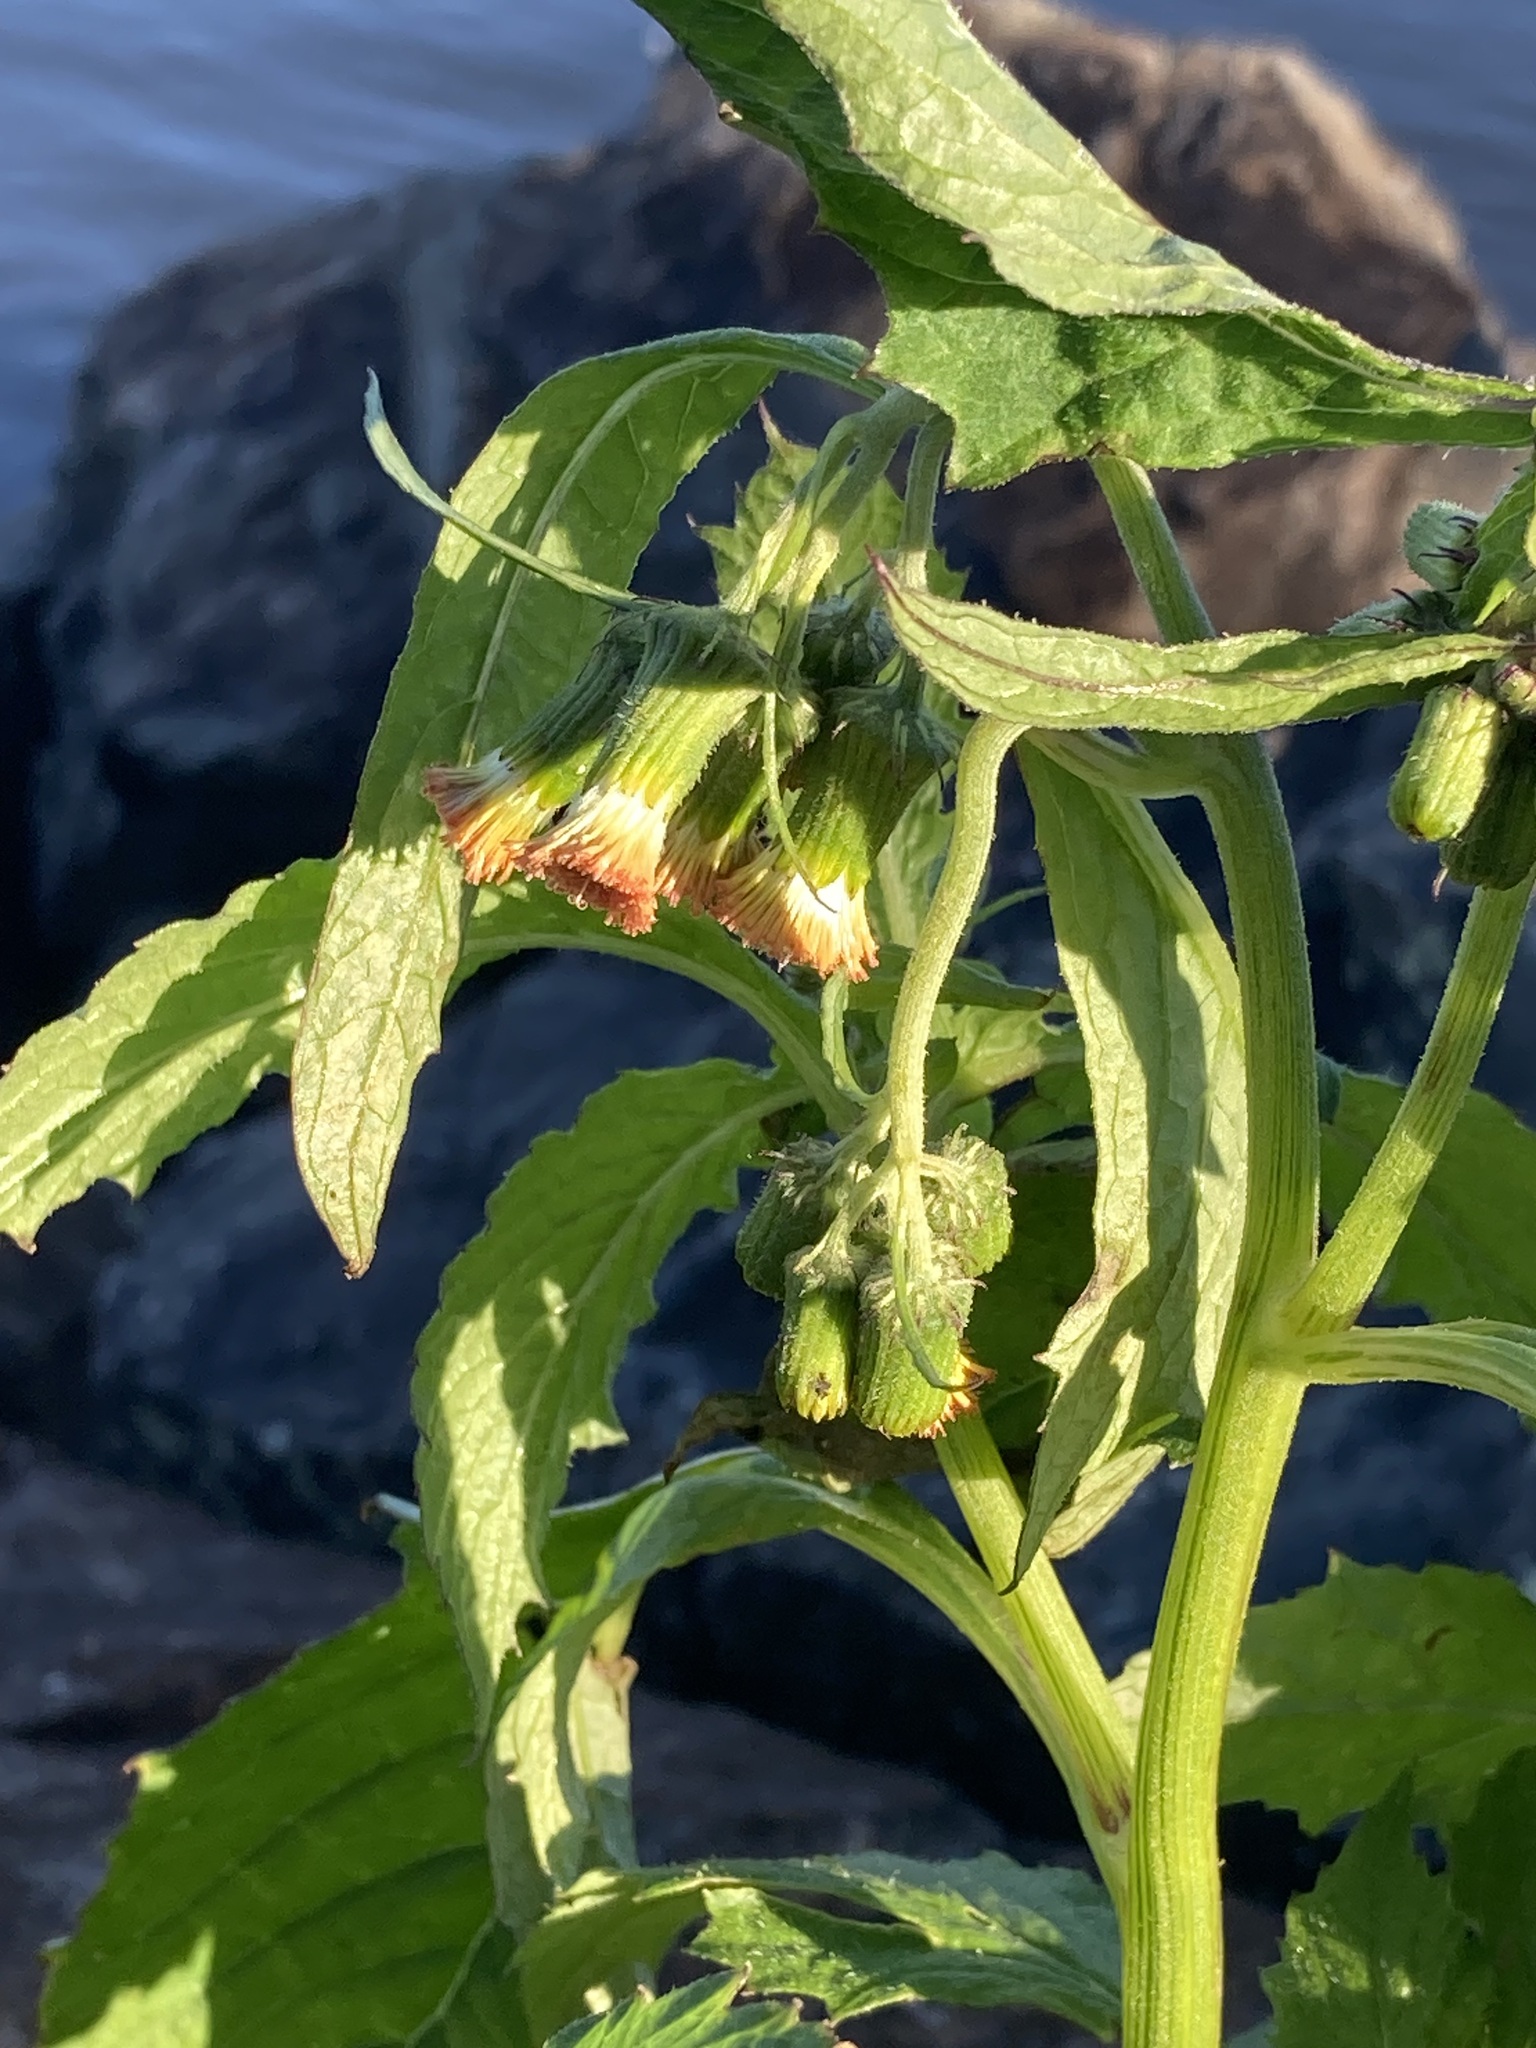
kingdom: Plantae
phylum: Tracheophyta
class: Magnoliopsida
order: Asterales
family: Asteraceae
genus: Crassocephalum
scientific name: Crassocephalum crepidioides
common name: Redflower ragleaf
